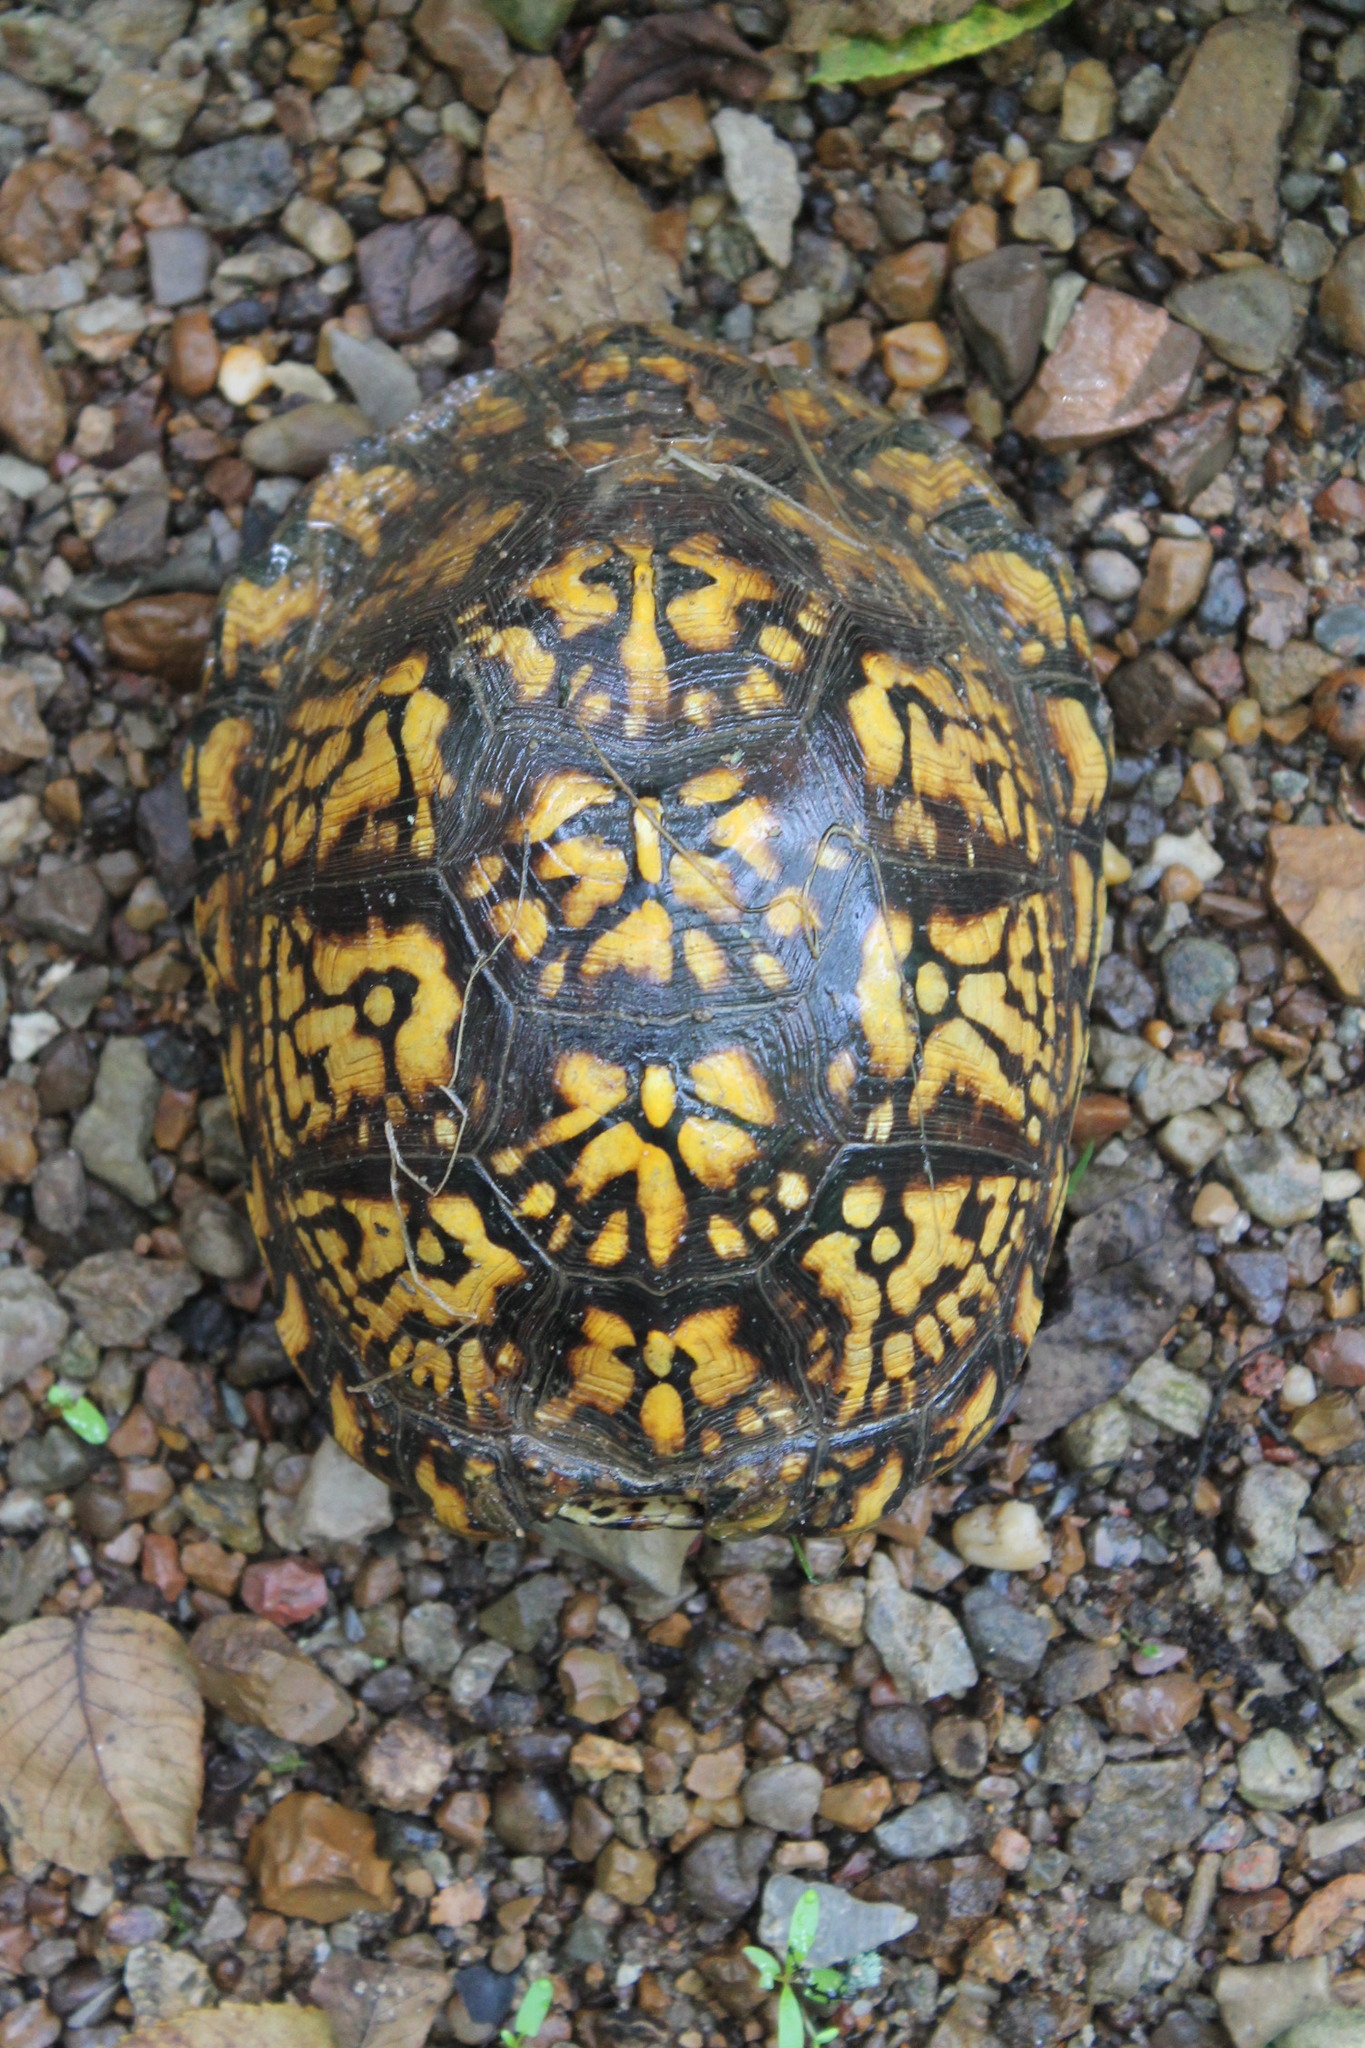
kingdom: Animalia
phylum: Chordata
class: Testudines
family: Emydidae
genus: Terrapene
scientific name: Terrapene carolina
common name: Common box turtle
